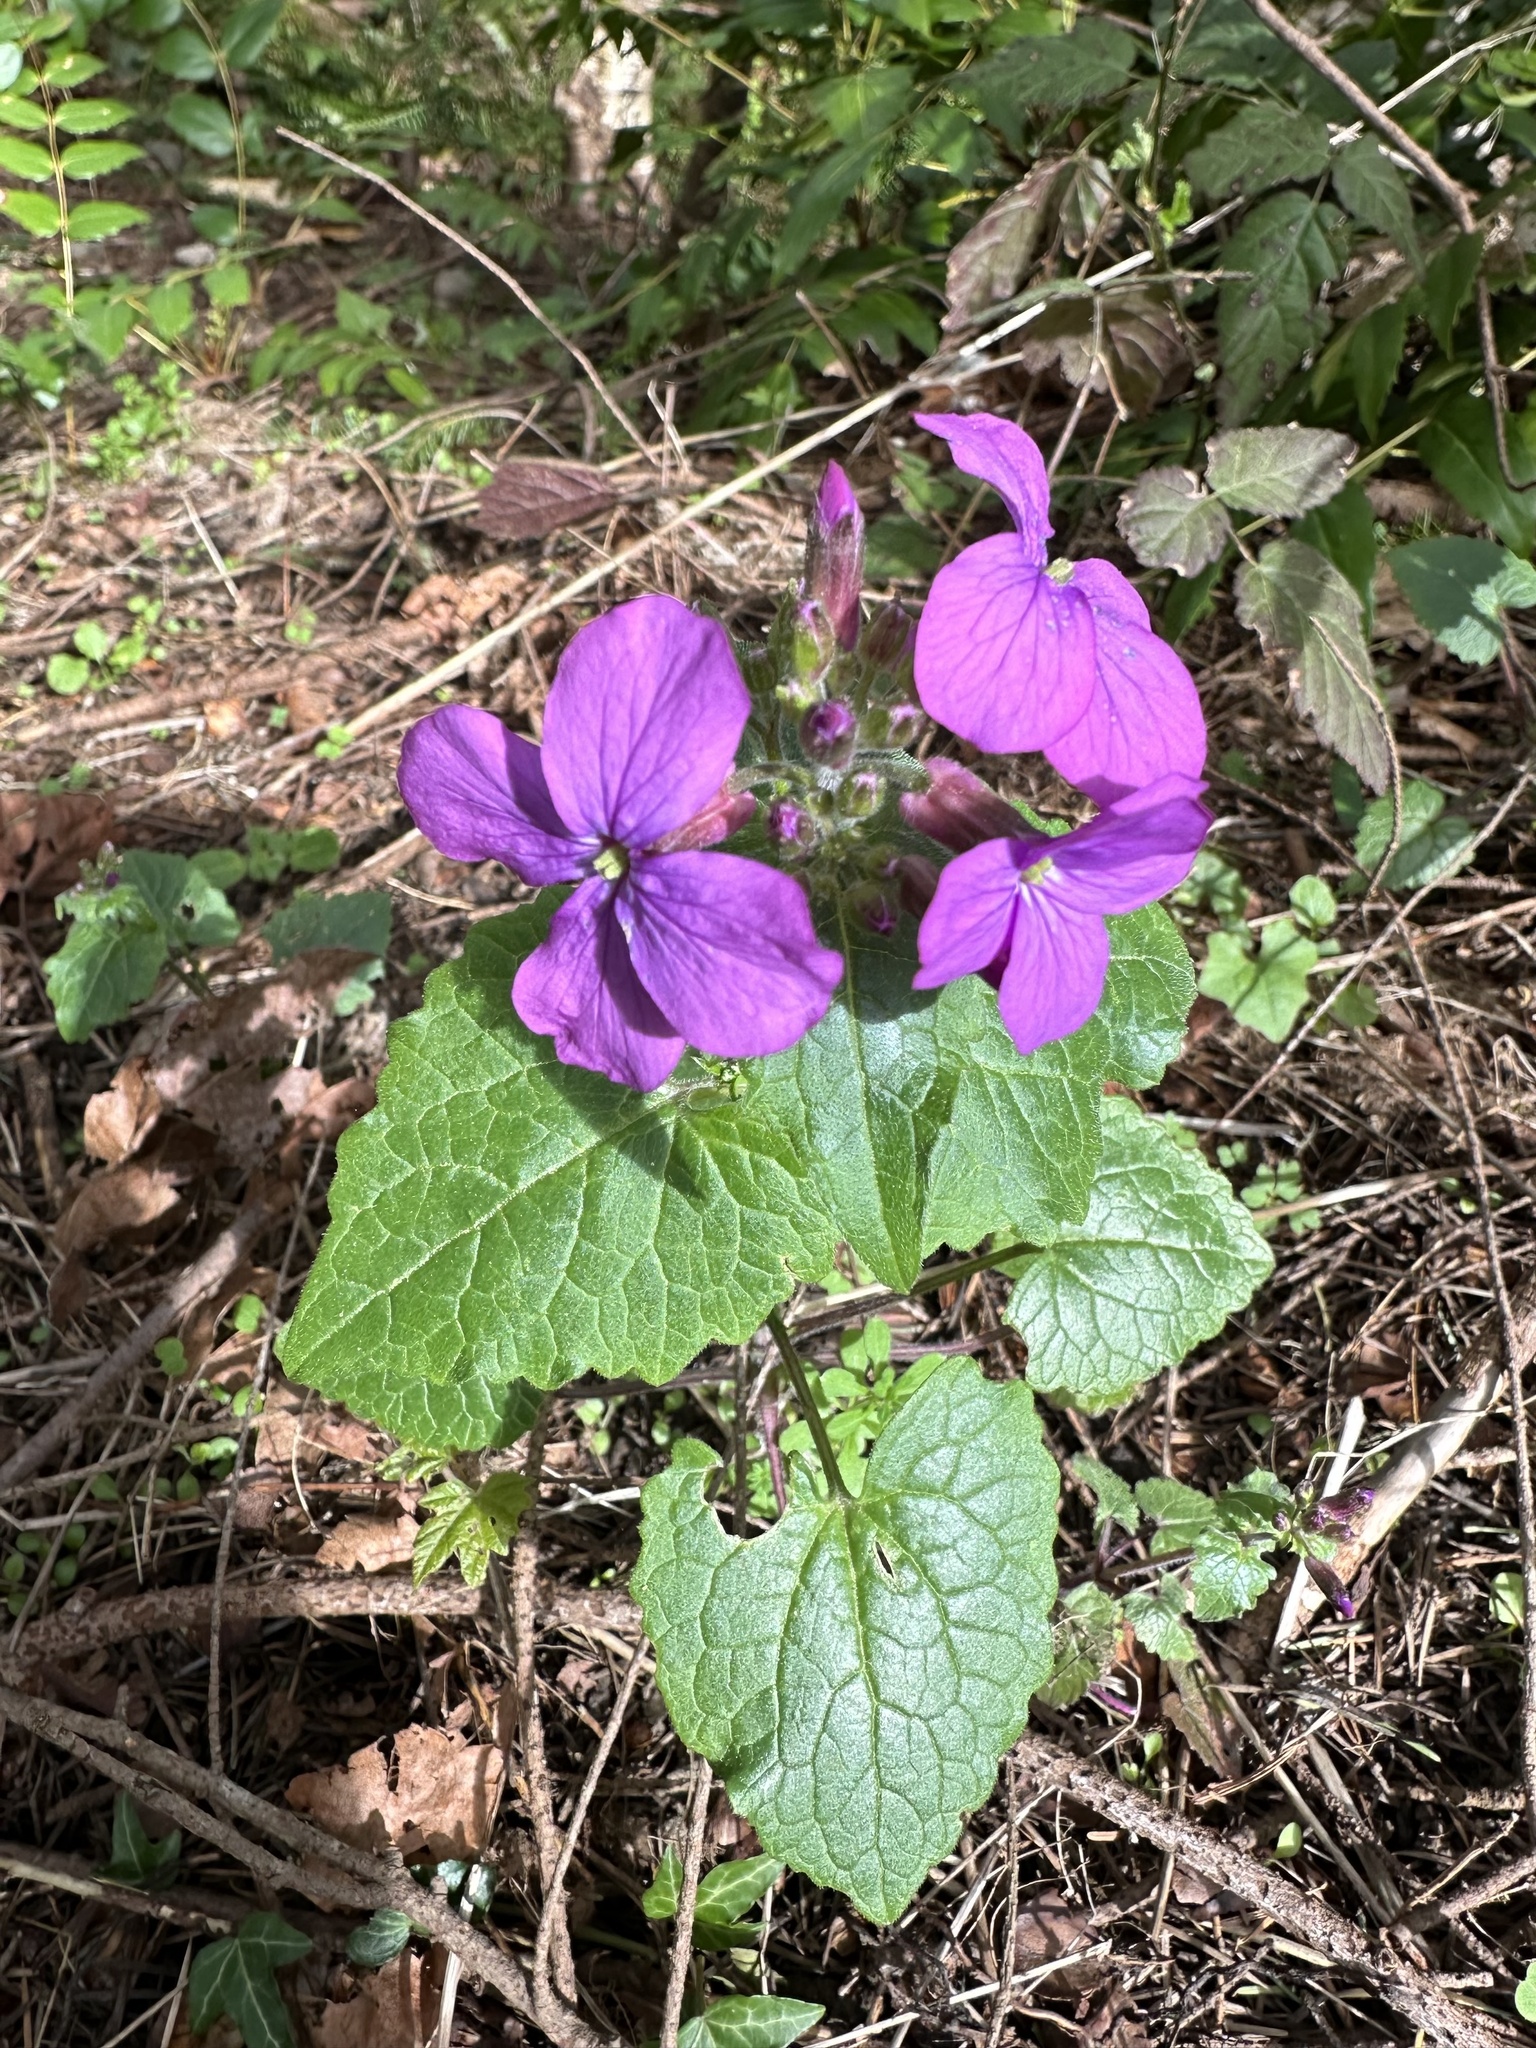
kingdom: Plantae
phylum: Tracheophyta
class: Magnoliopsida
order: Brassicales
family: Brassicaceae
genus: Lunaria
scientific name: Lunaria annua
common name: Honesty
